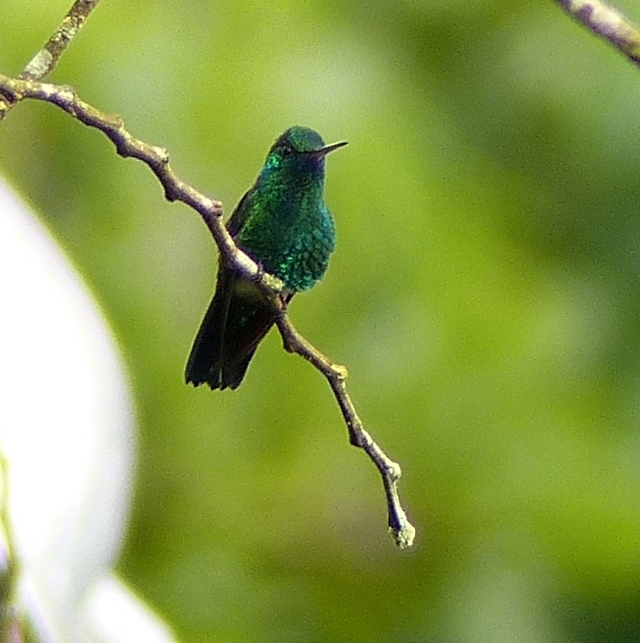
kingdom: Animalia
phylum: Chordata
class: Aves
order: Apodiformes
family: Trochilidae
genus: Chlorestes
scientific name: Chlorestes notata
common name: Blue-chinned sapphire
